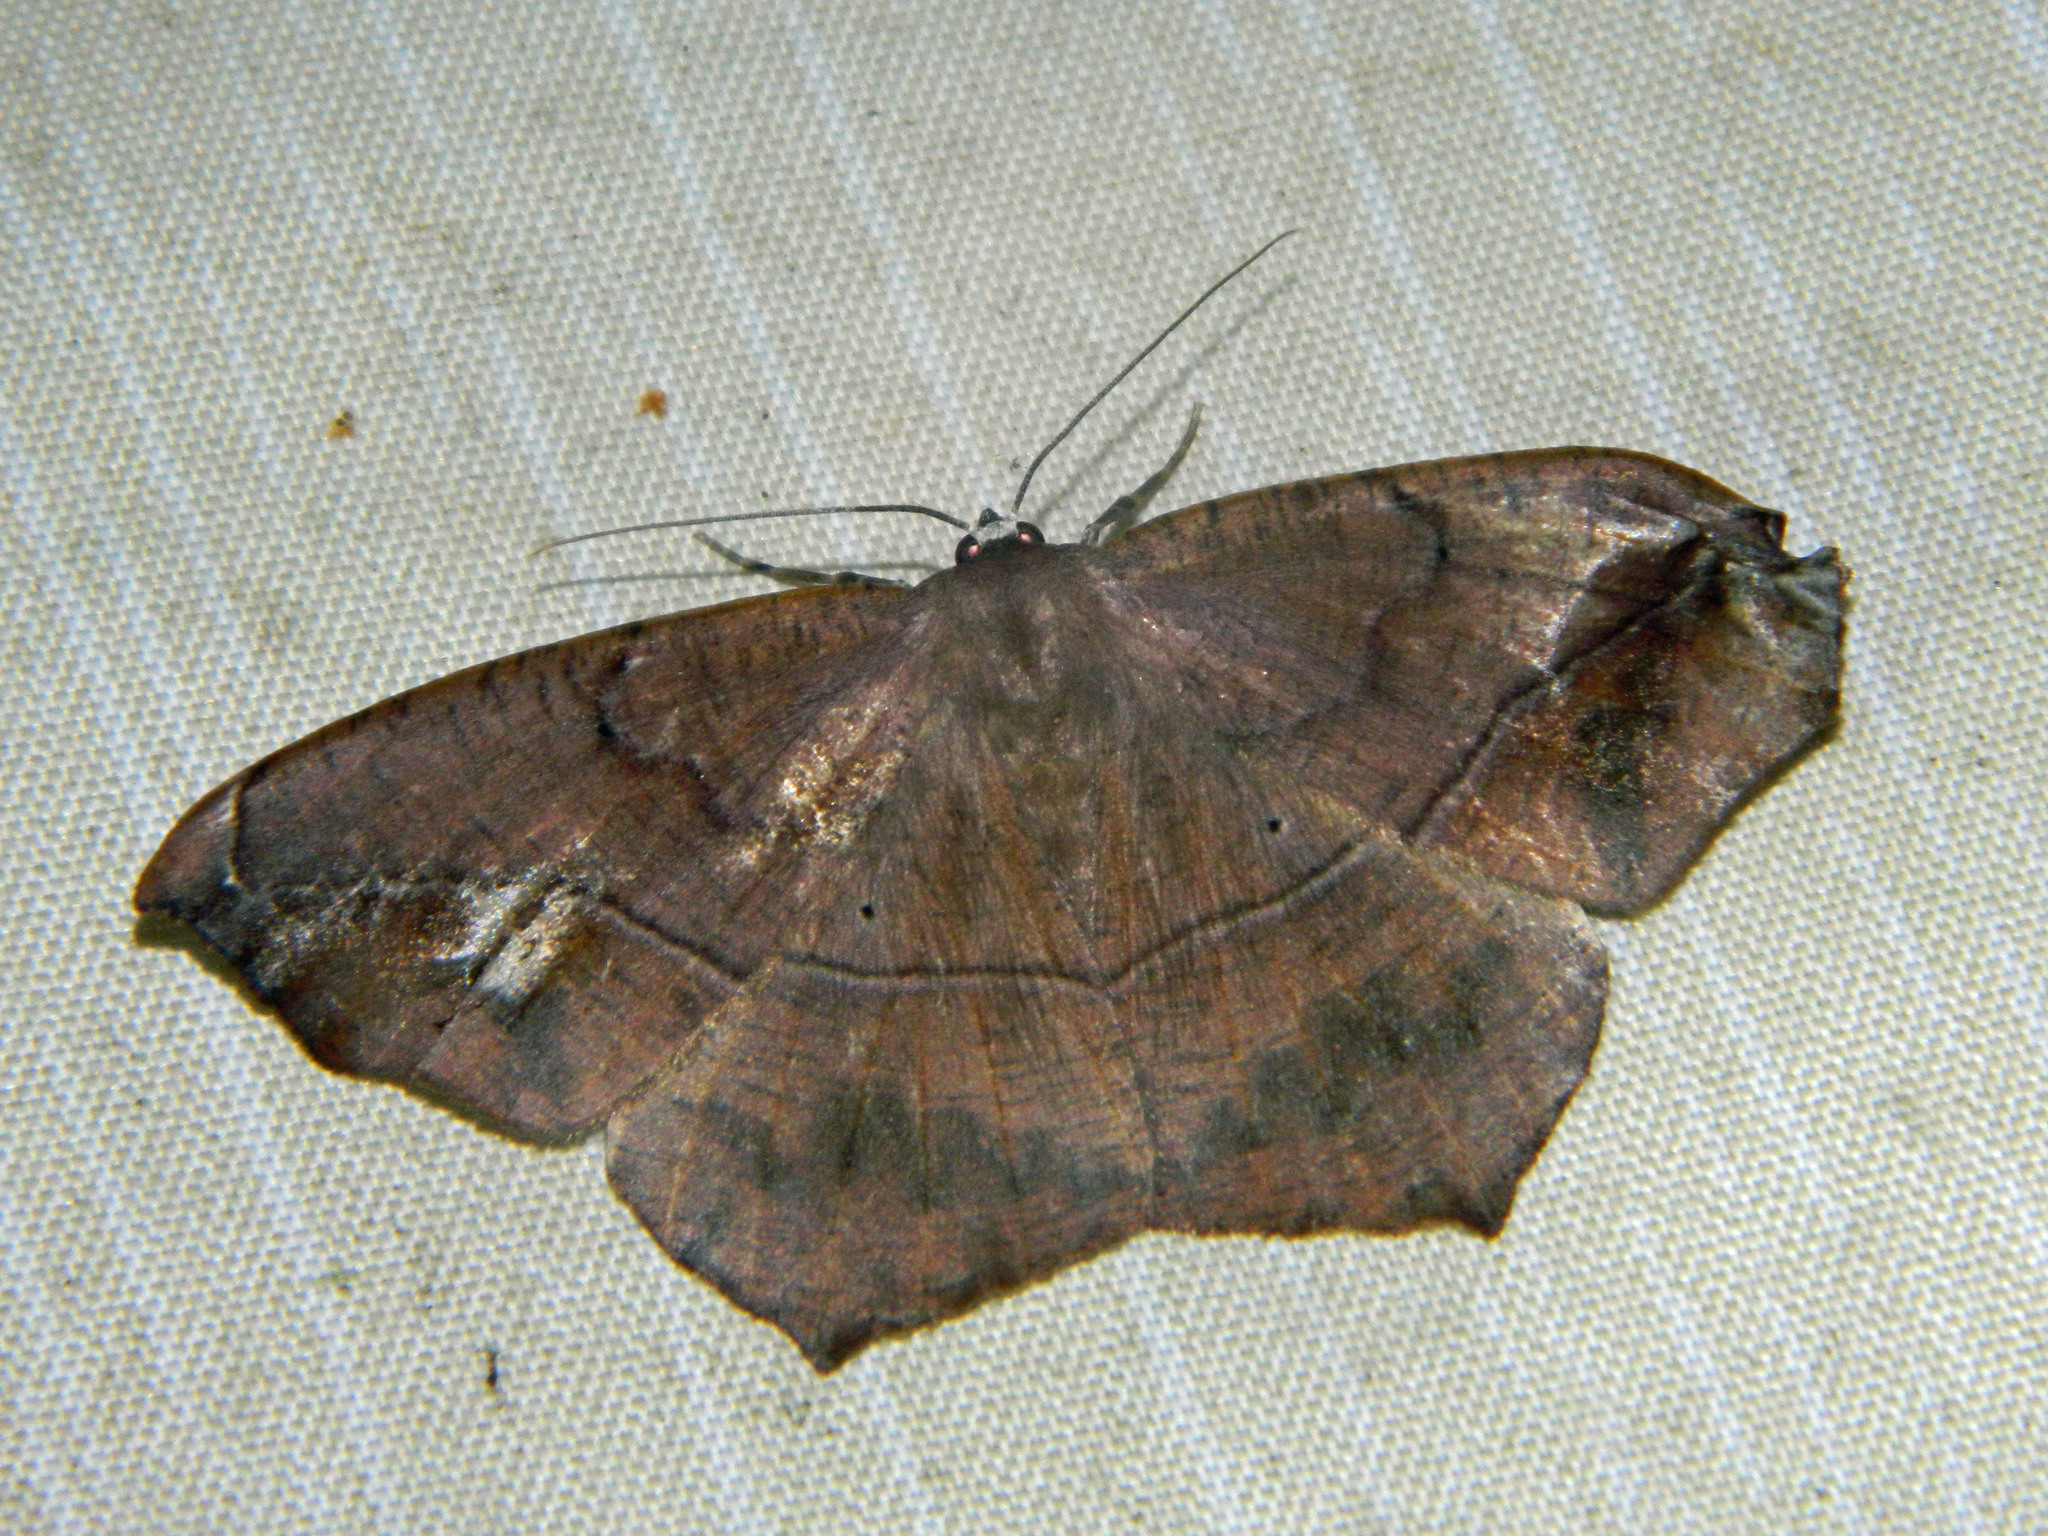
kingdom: Animalia
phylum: Arthropoda
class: Insecta
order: Lepidoptera
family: Geometridae
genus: Prochoerodes
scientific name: Prochoerodes lineola
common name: Large maple spanworm
